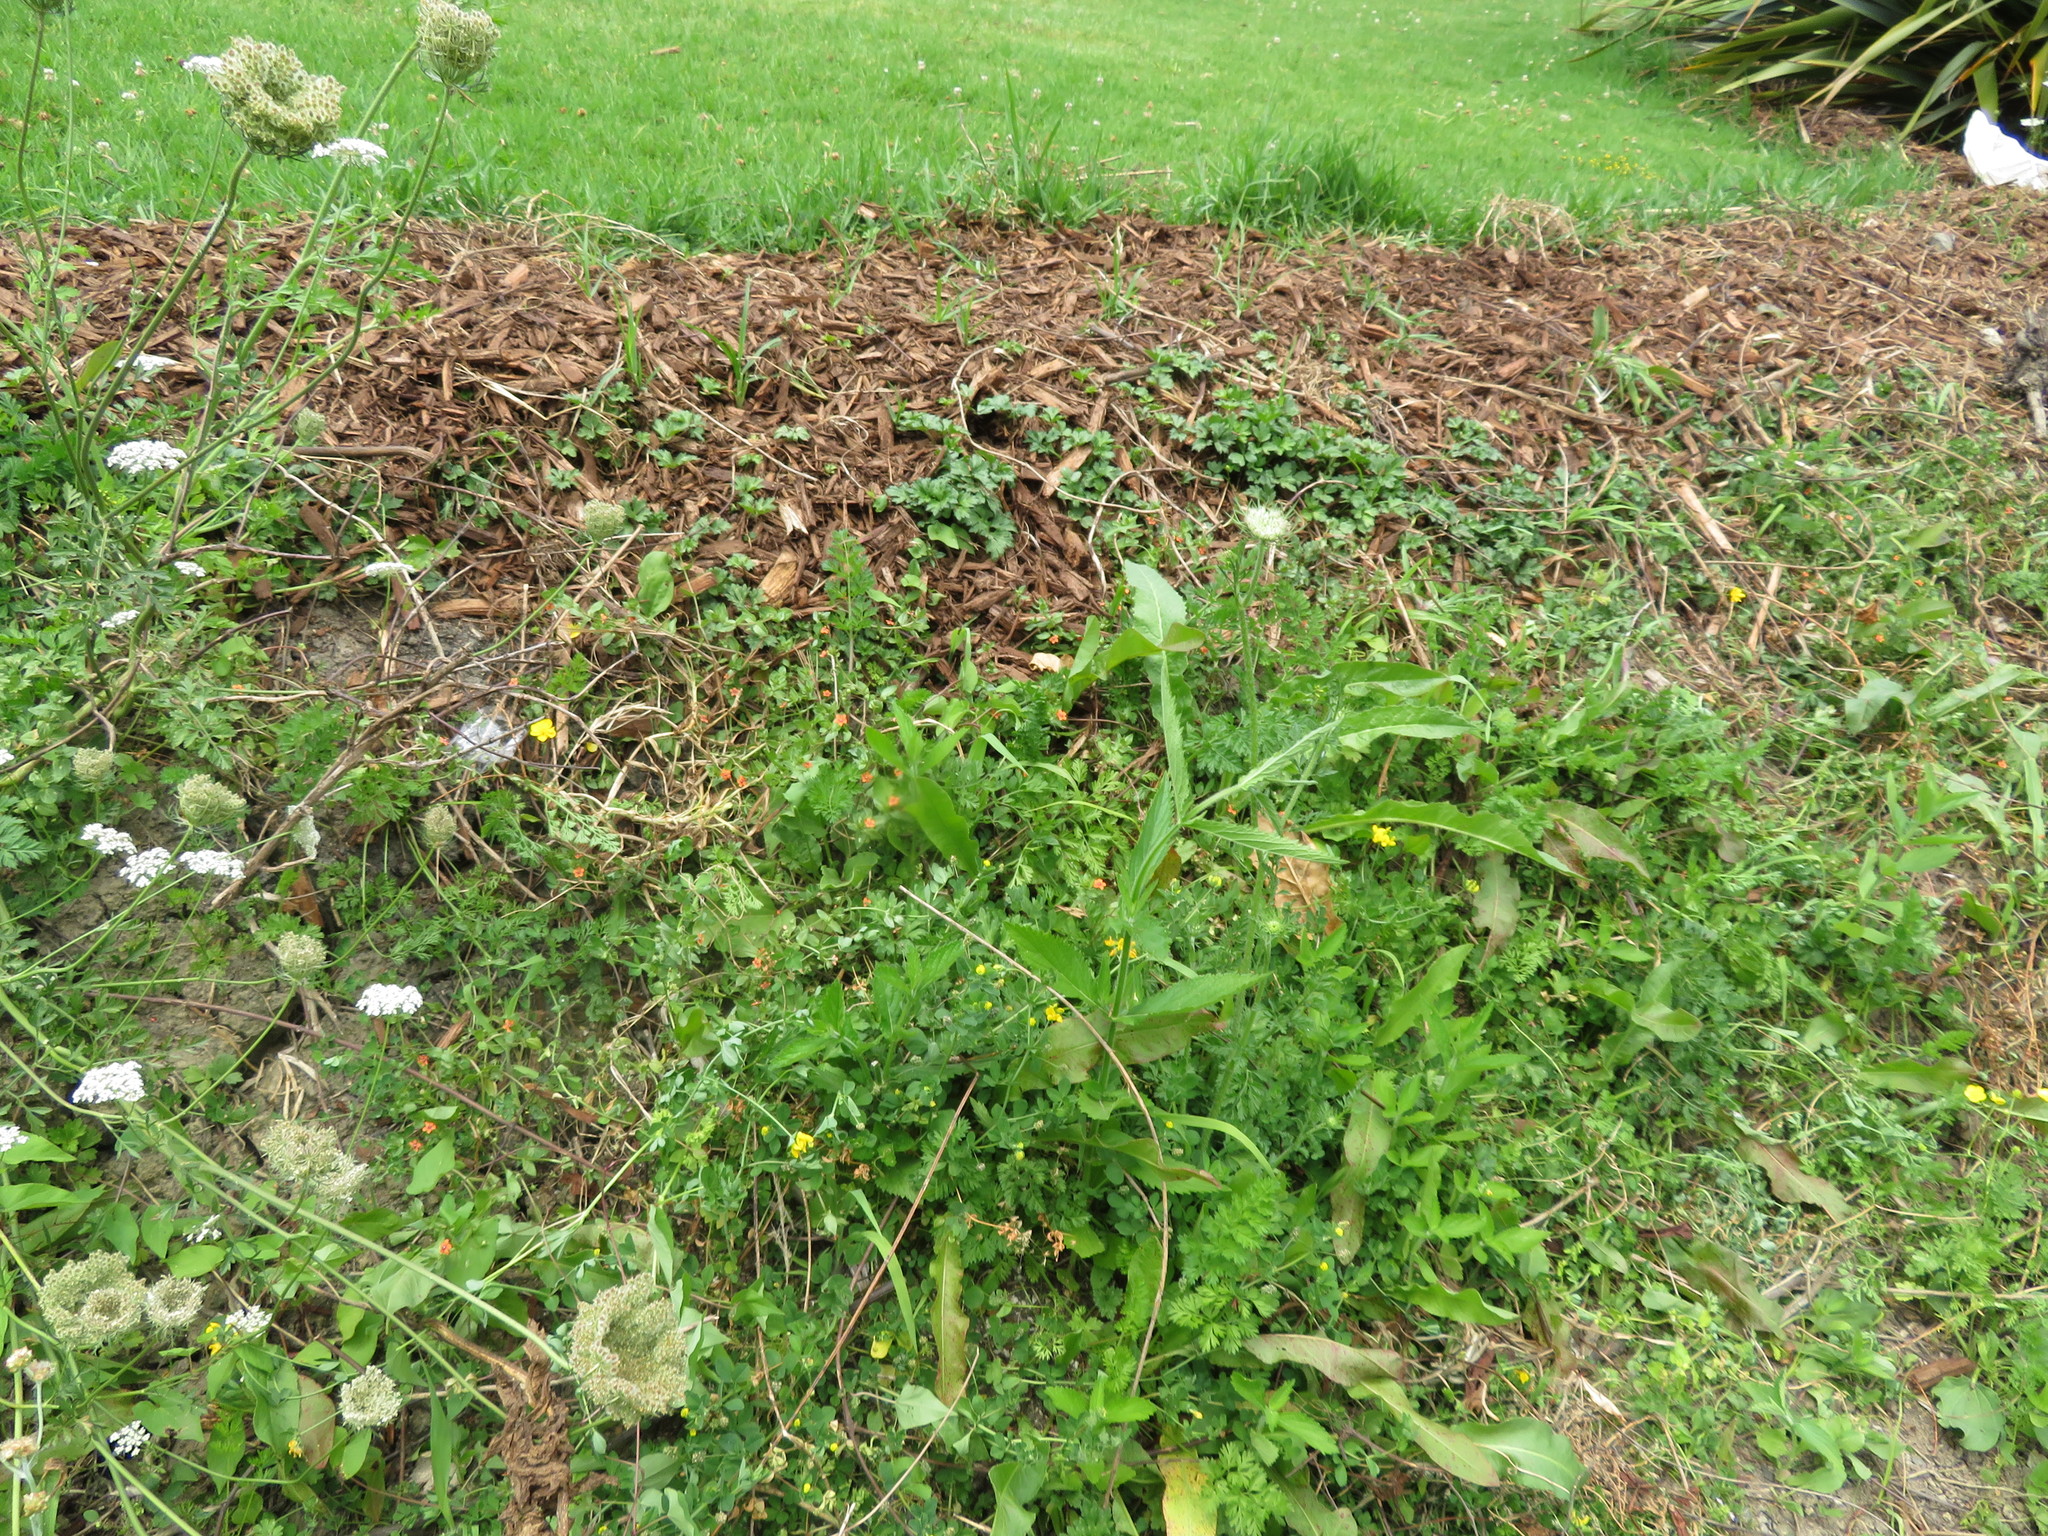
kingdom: Plantae
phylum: Tracheophyta
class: Magnoliopsida
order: Ericales
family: Primulaceae
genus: Lysimachia
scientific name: Lysimachia arvensis
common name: Scarlet pimpernel
